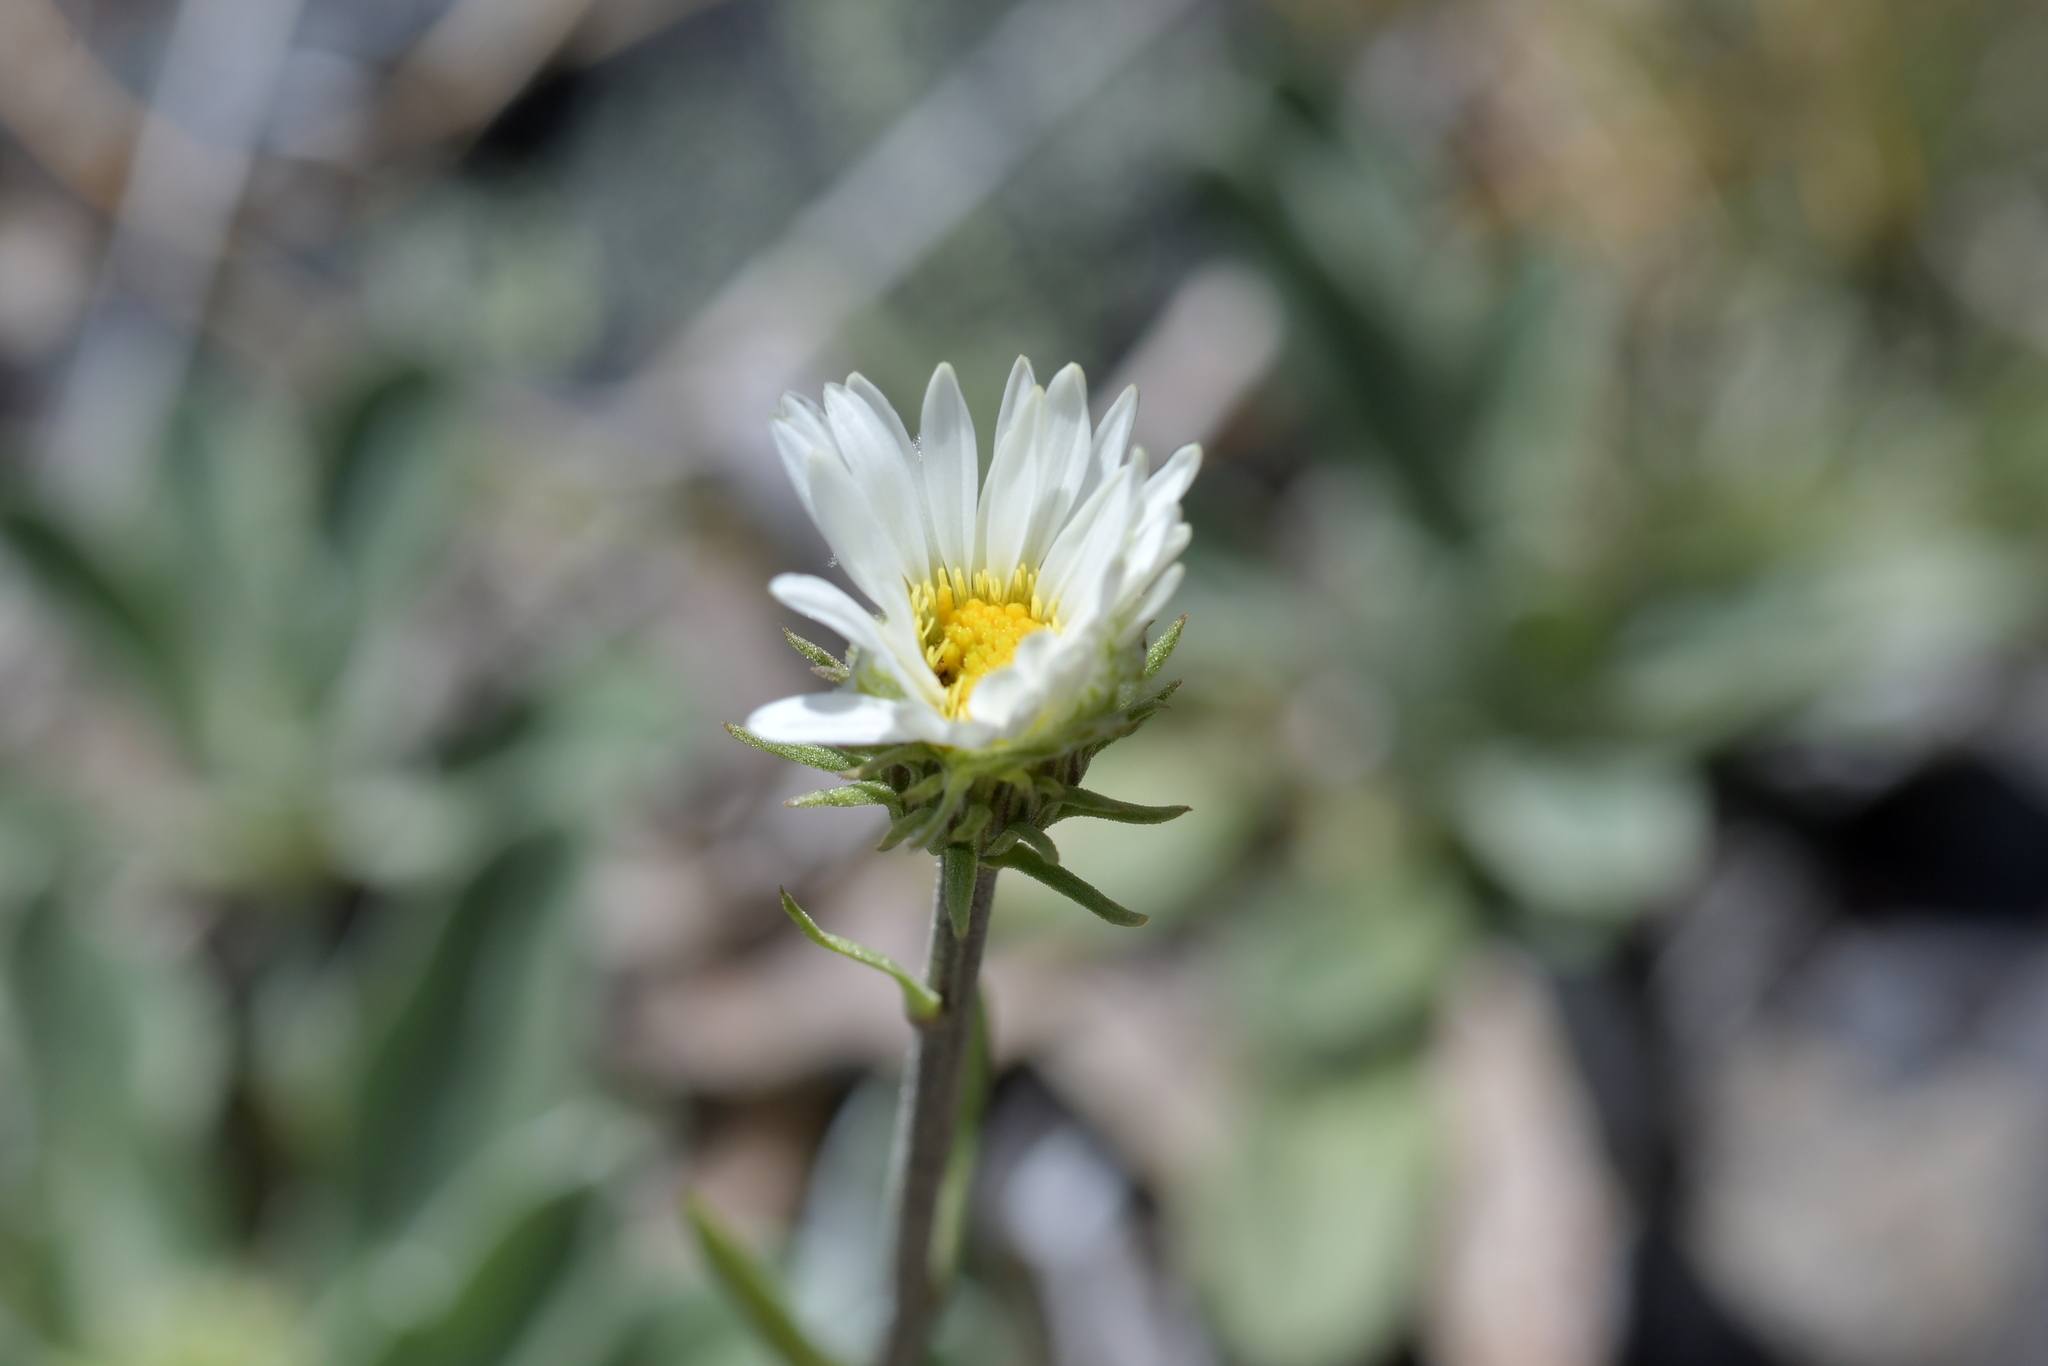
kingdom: Plantae
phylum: Tracheophyta
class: Magnoliopsida
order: Asterales
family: Asteraceae
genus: Celmisia
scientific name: Celmisia durietzii
